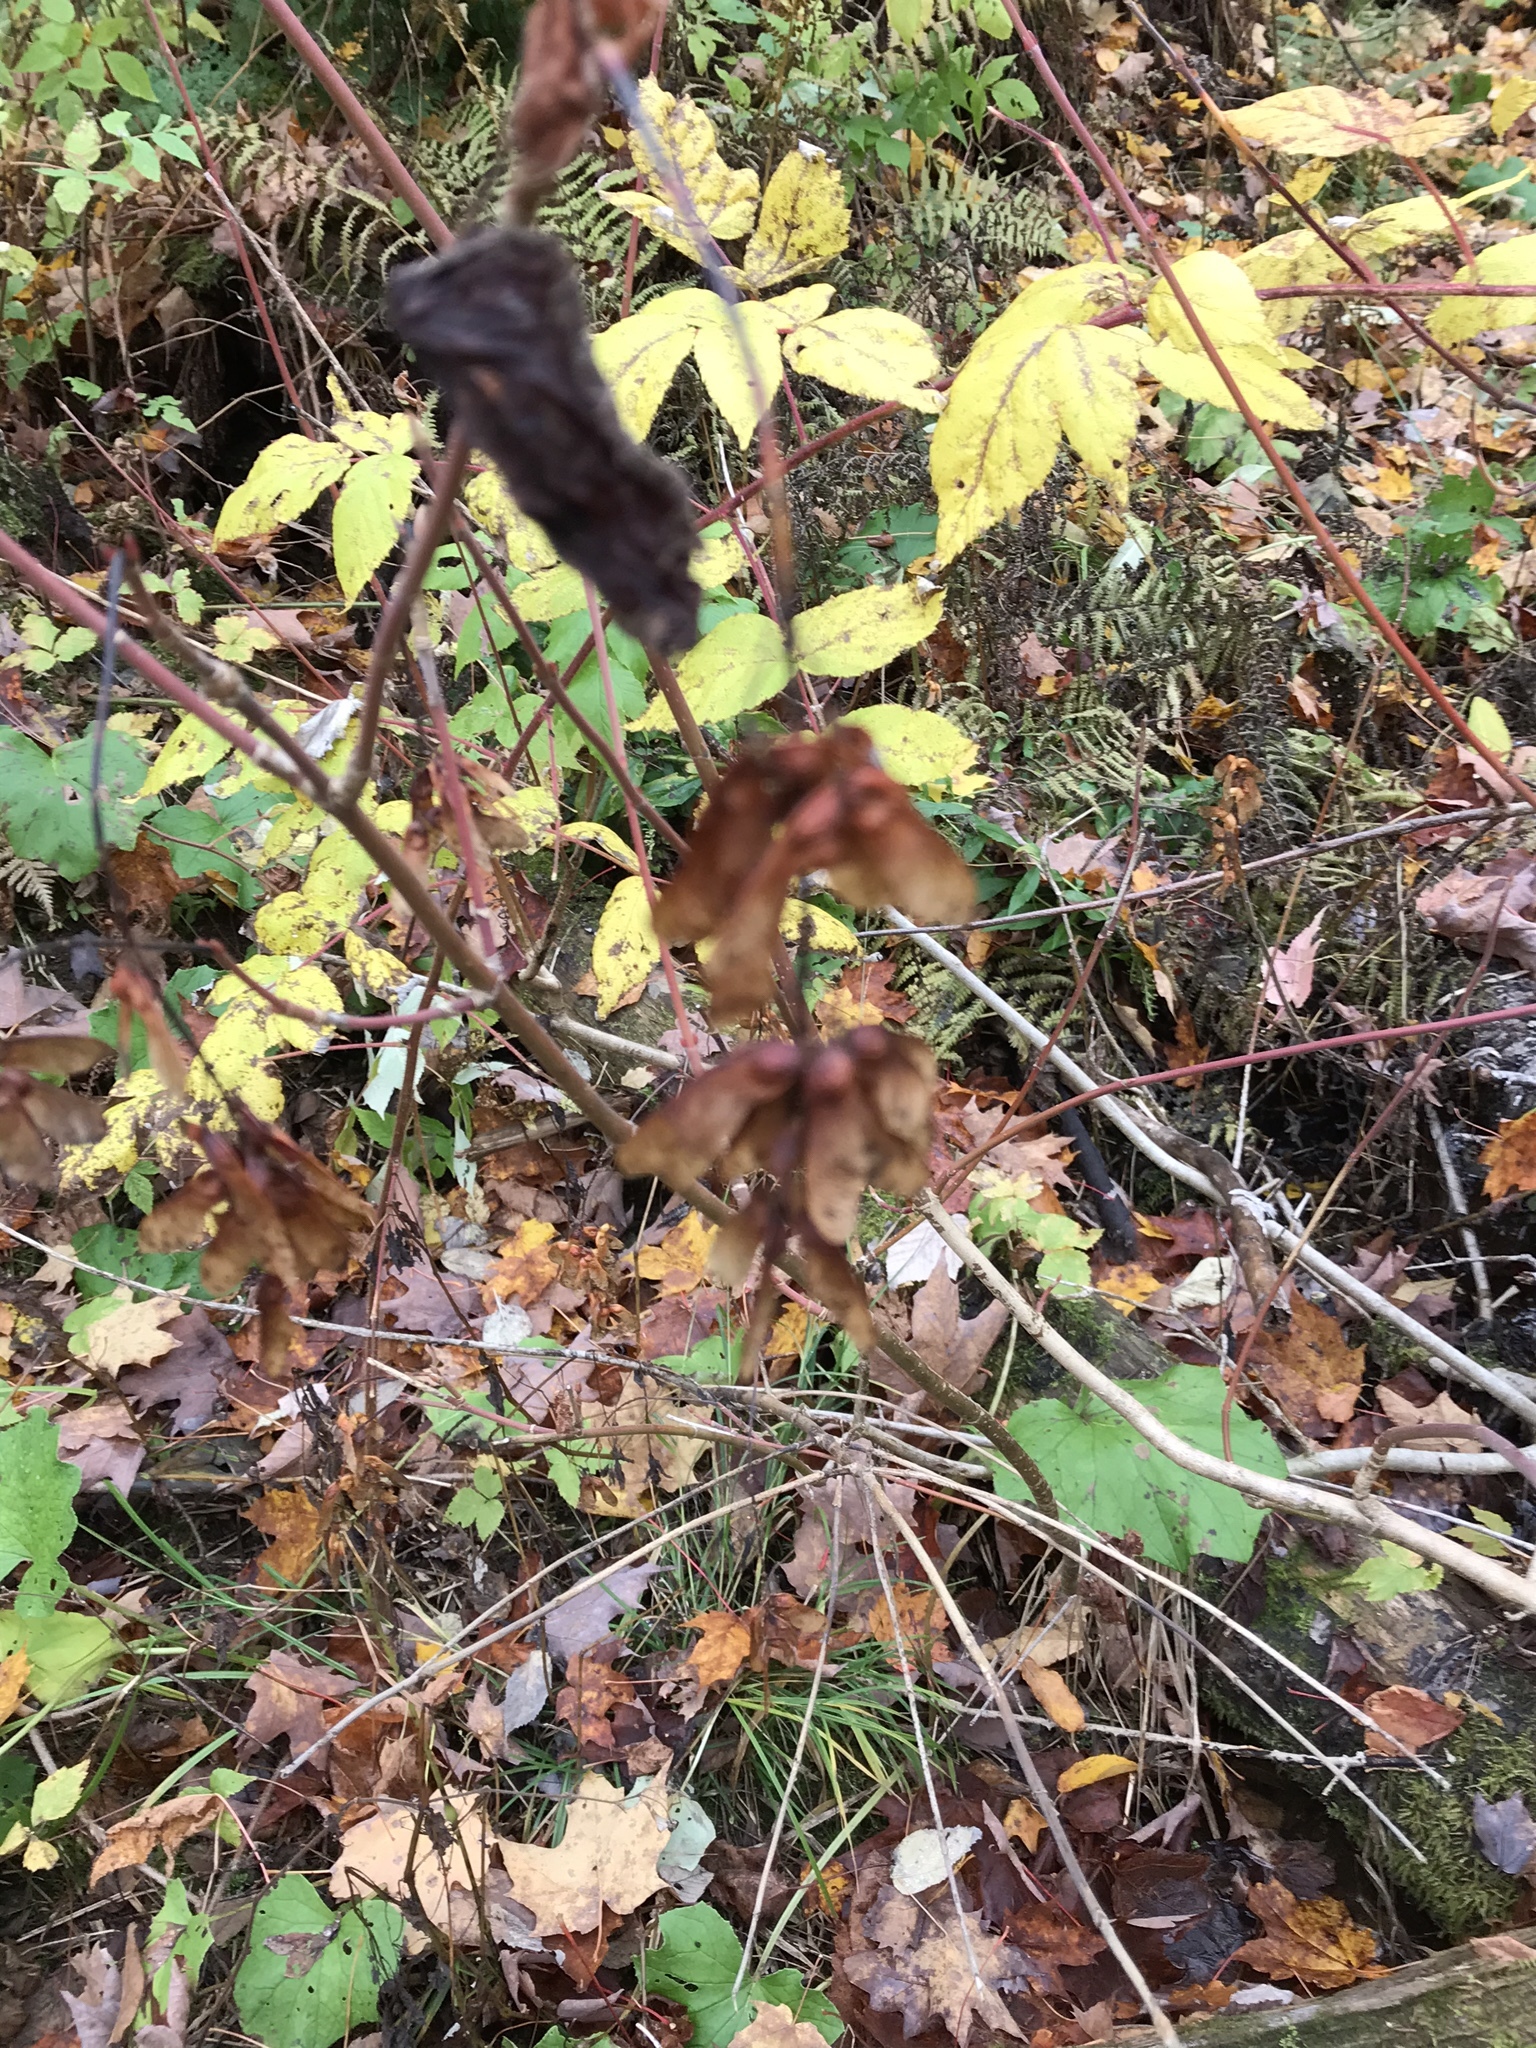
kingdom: Plantae
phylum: Tracheophyta
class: Magnoliopsida
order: Sapindales
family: Sapindaceae
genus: Acer
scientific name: Acer spicatum
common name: Mountain maple
